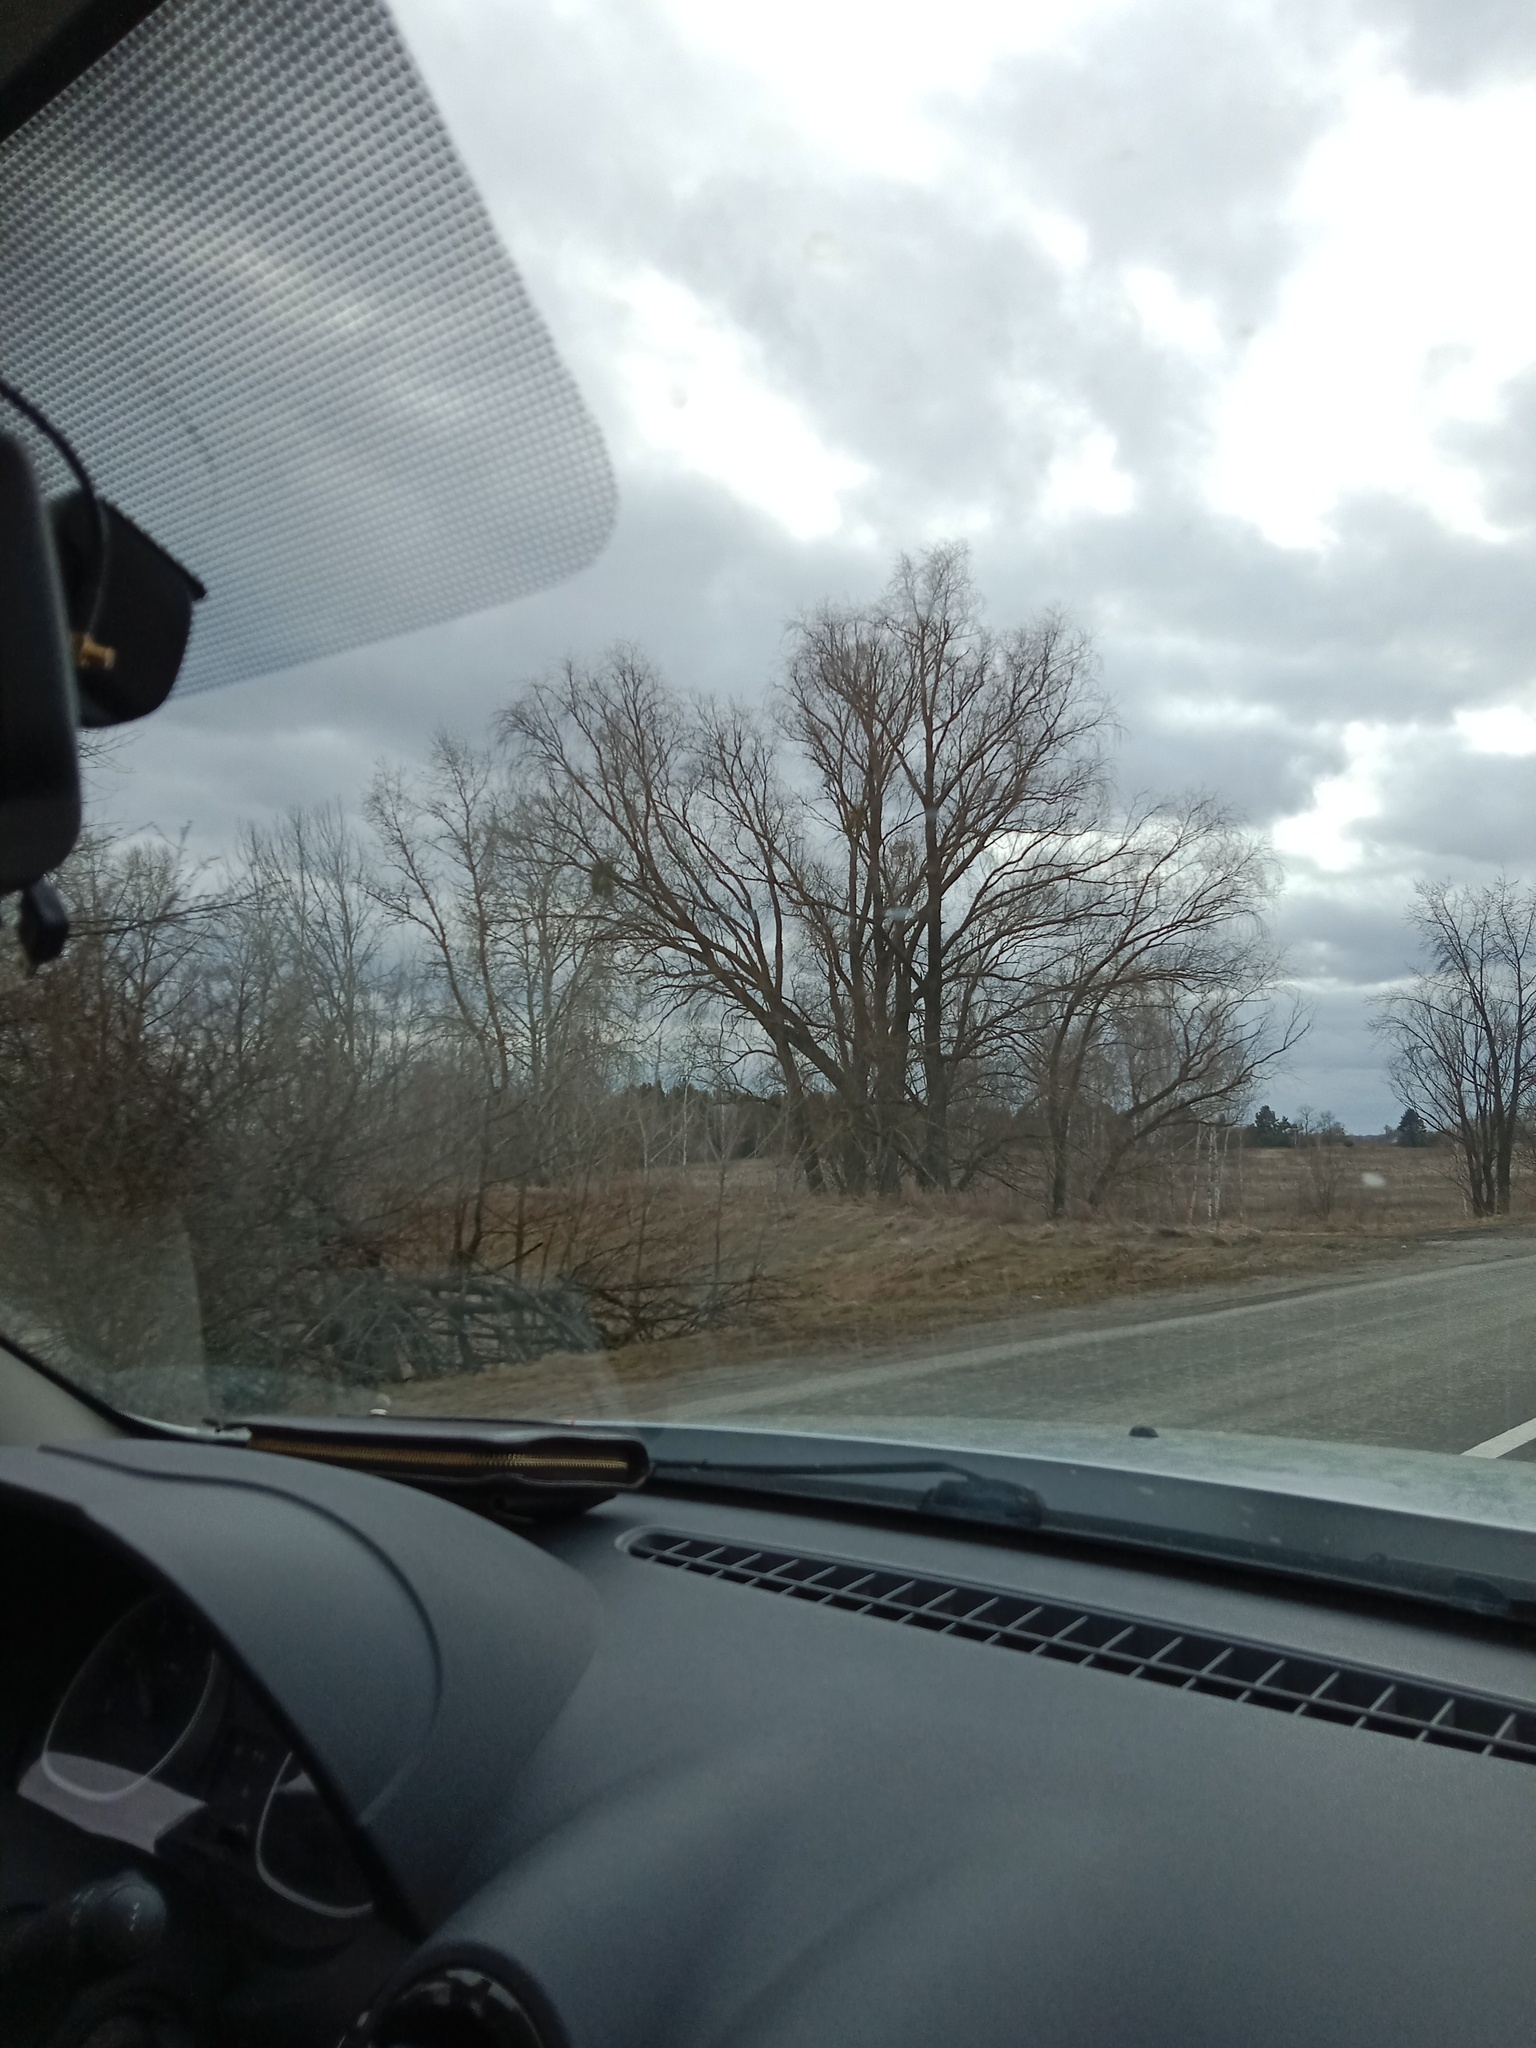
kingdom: Plantae
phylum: Tracheophyta
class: Magnoliopsida
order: Santalales
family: Viscaceae
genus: Viscum
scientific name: Viscum album
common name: Mistletoe
